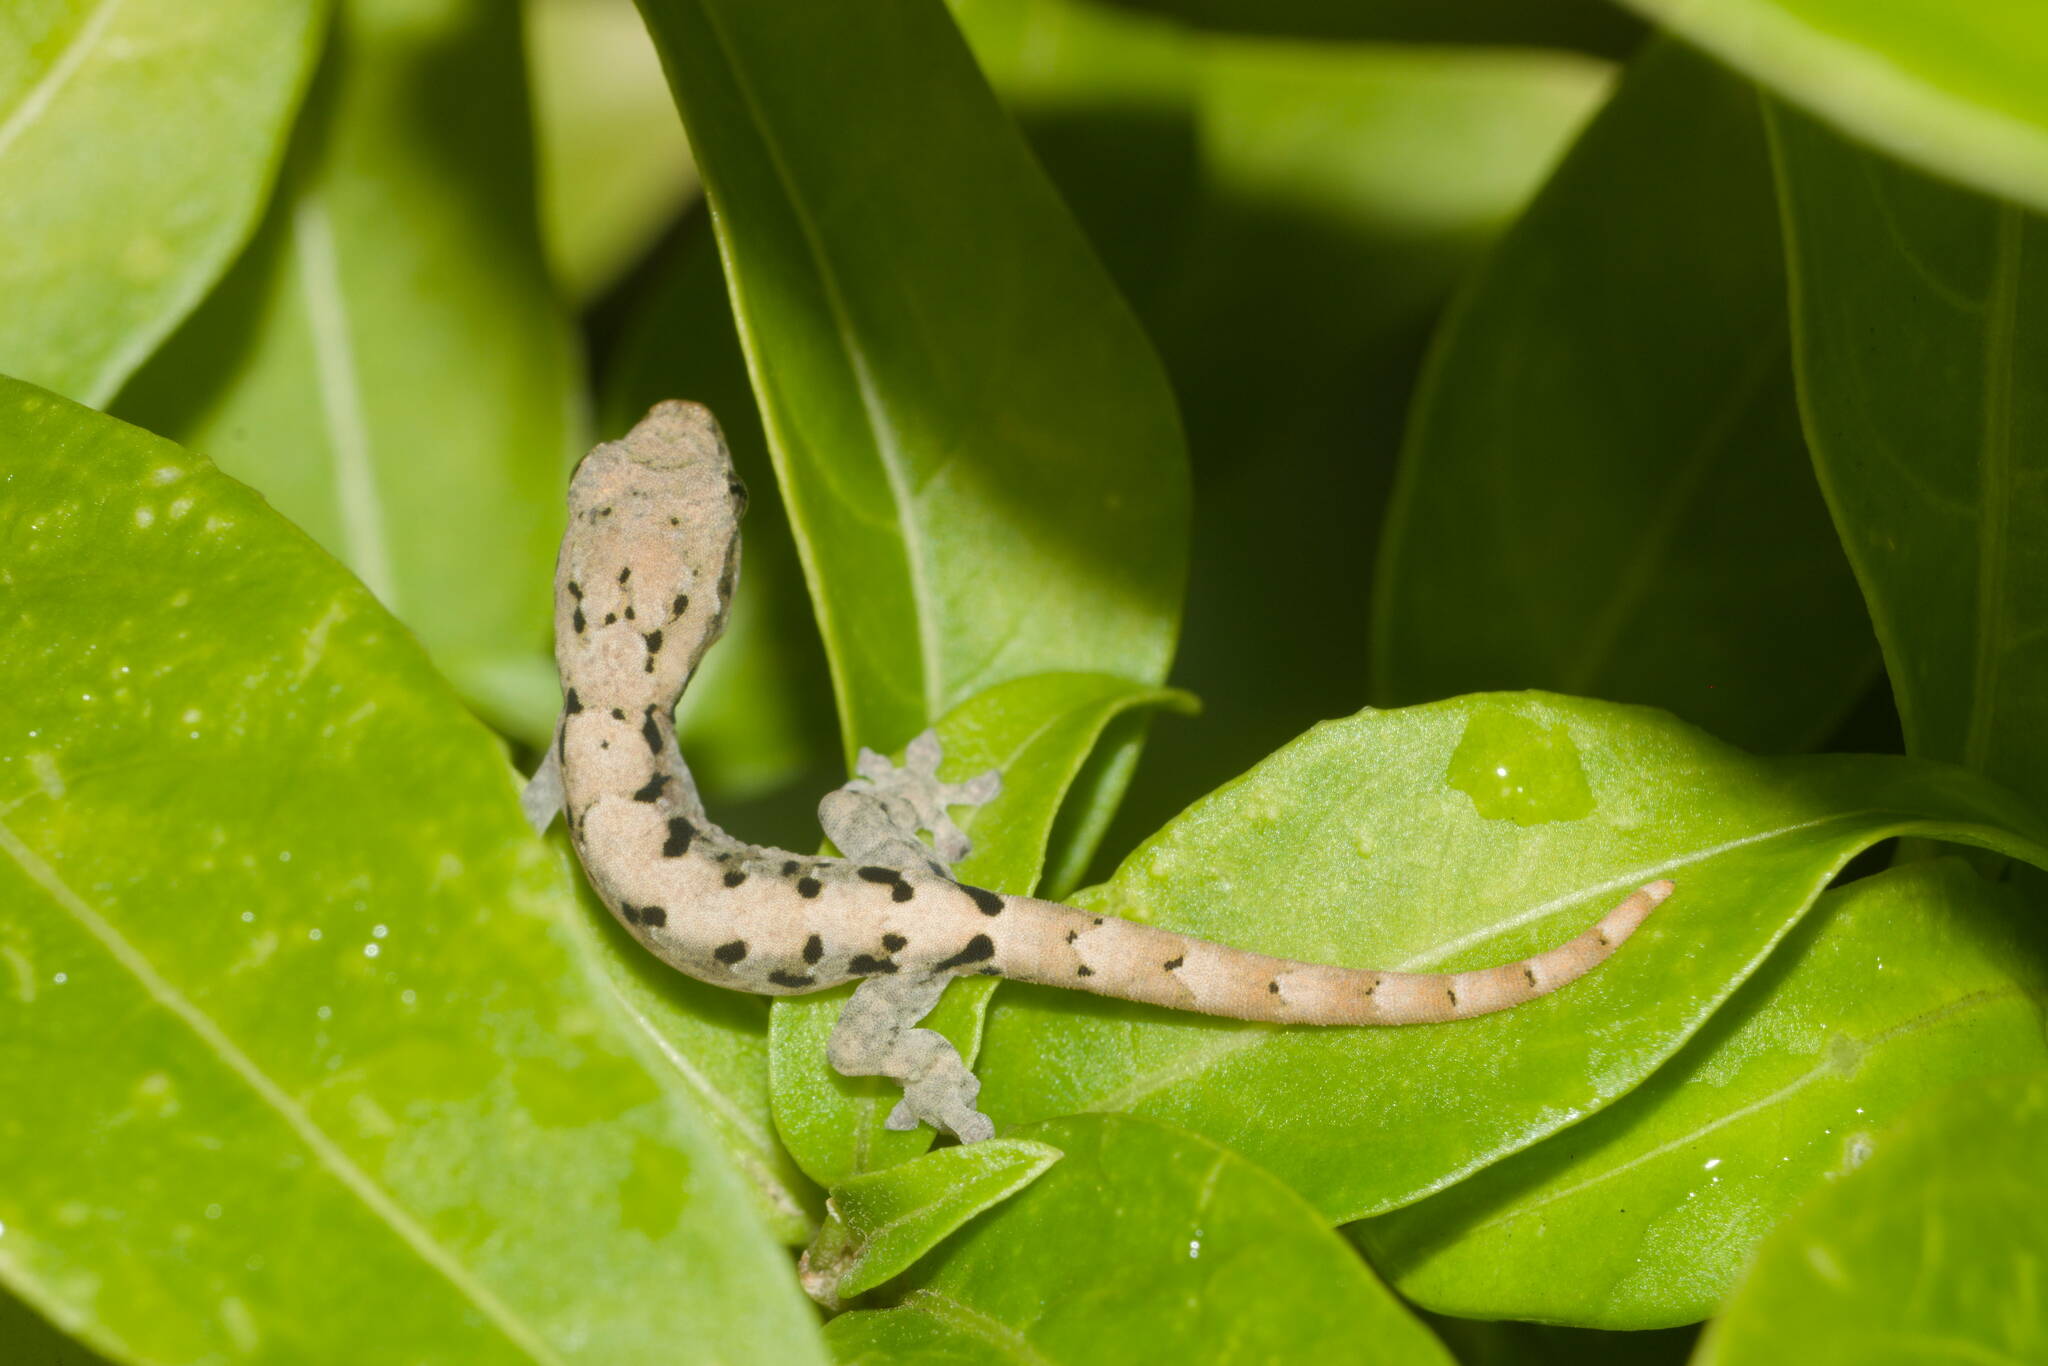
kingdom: Animalia
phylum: Chordata
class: Squamata
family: Gekkonidae
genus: Lepidodactylus
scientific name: Lepidodactylus lugubris
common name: Mourning gecko
